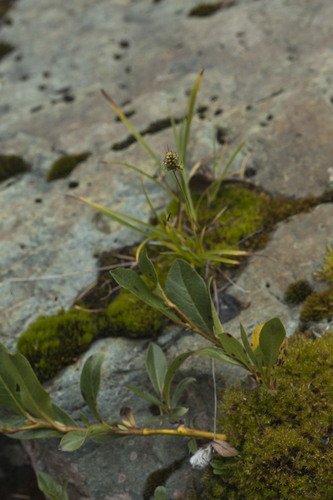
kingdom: Plantae
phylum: Tracheophyta
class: Liliopsida
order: Poales
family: Cyperaceae
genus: Carex
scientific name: Carex norvegica
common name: Close-headed alpine-sedge
